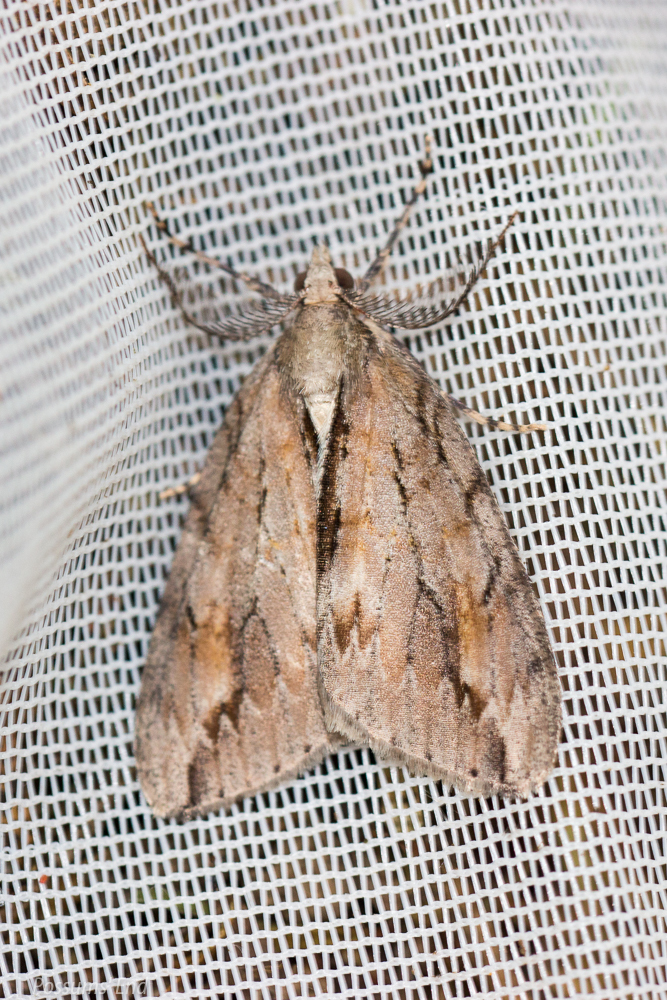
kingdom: Animalia
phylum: Arthropoda
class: Insecta
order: Lepidoptera
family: Geometridae
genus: Pseudocoremia
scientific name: Pseudocoremia lupinata
